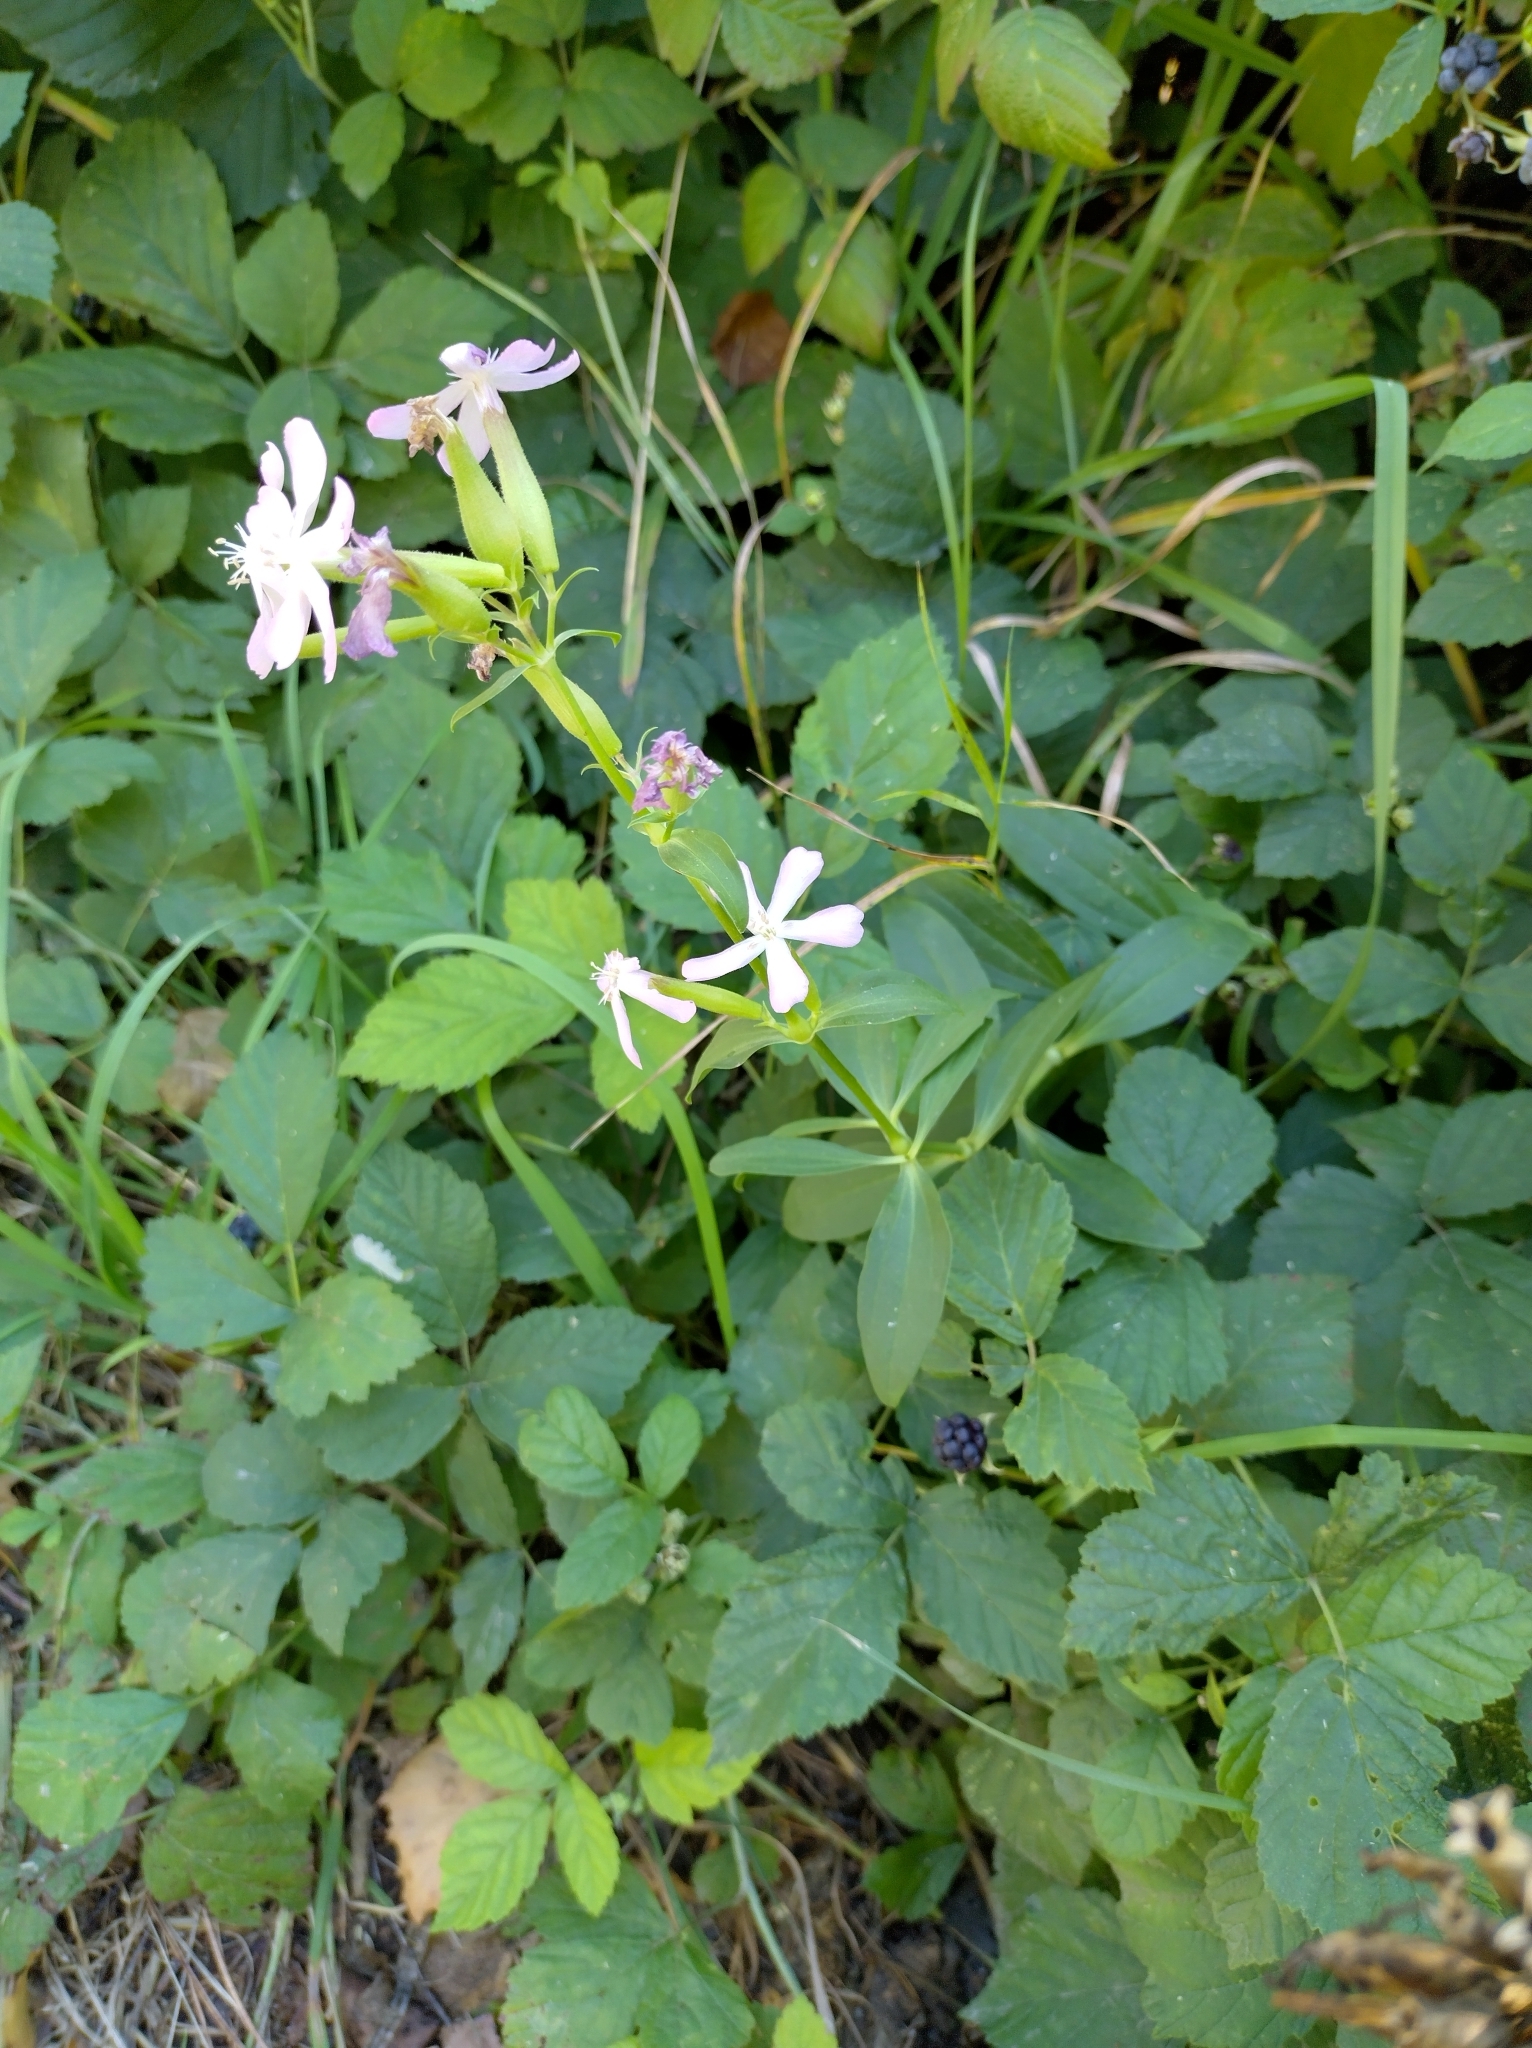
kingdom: Plantae
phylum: Tracheophyta
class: Magnoliopsida
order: Caryophyllales
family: Caryophyllaceae
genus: Saponaria
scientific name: Saponaria officinalis
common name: Soapwort
